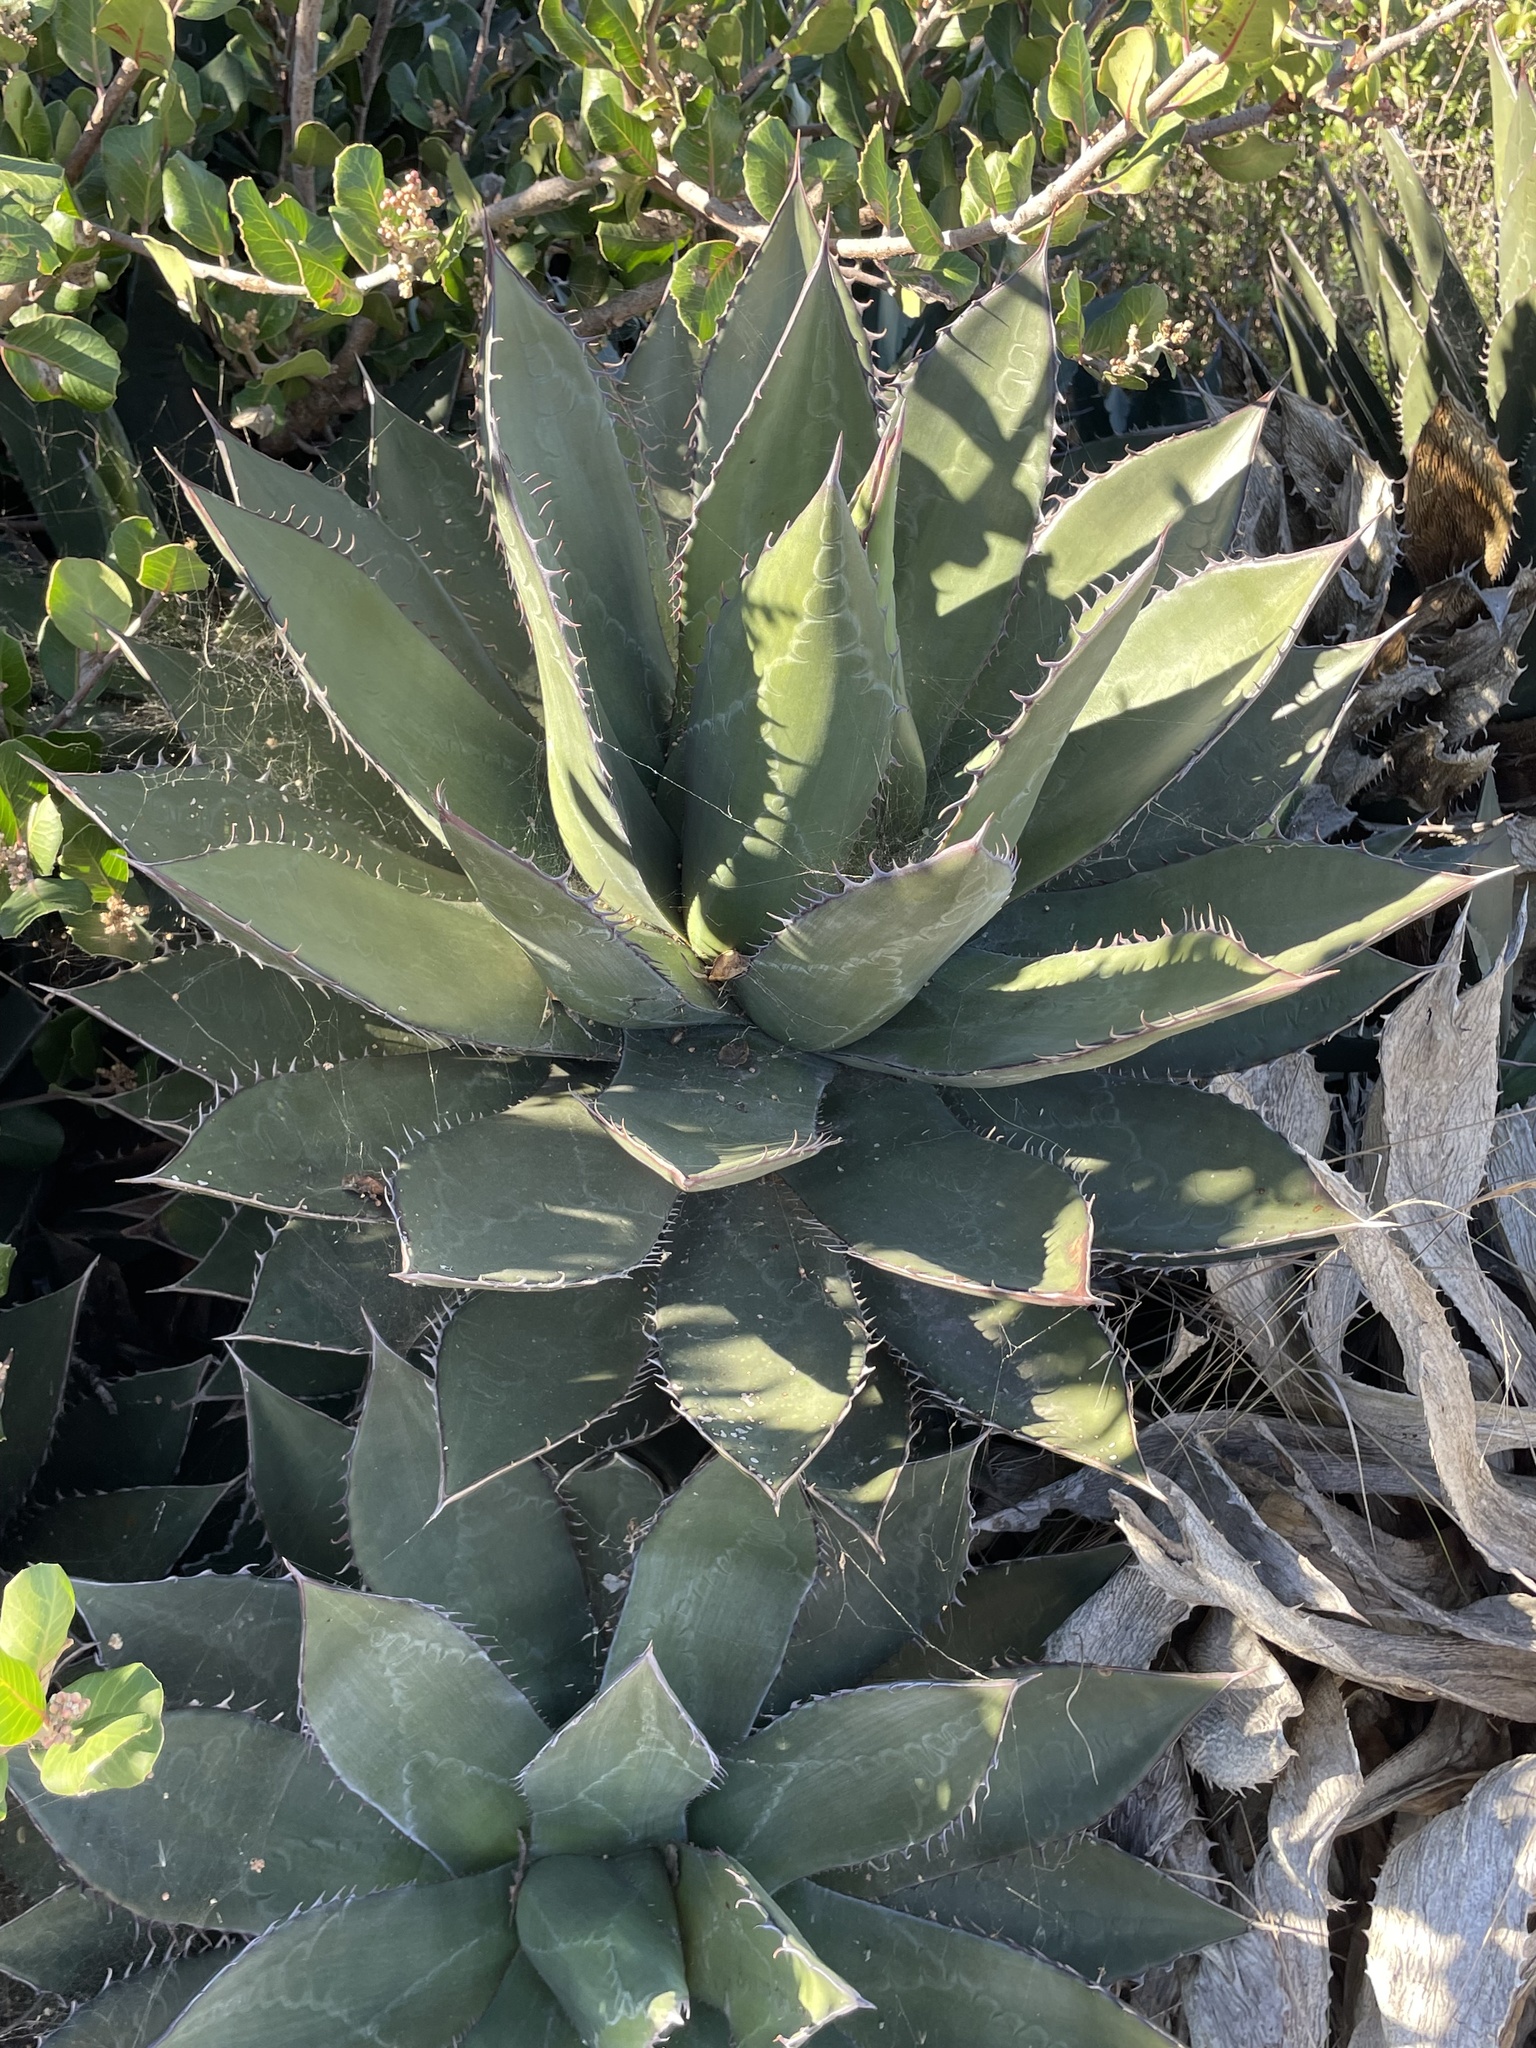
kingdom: Plantae
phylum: Tracheophyta
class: Liliopsida
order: Asparagales
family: Asparagaceae
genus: Agave
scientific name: Agave shawii
